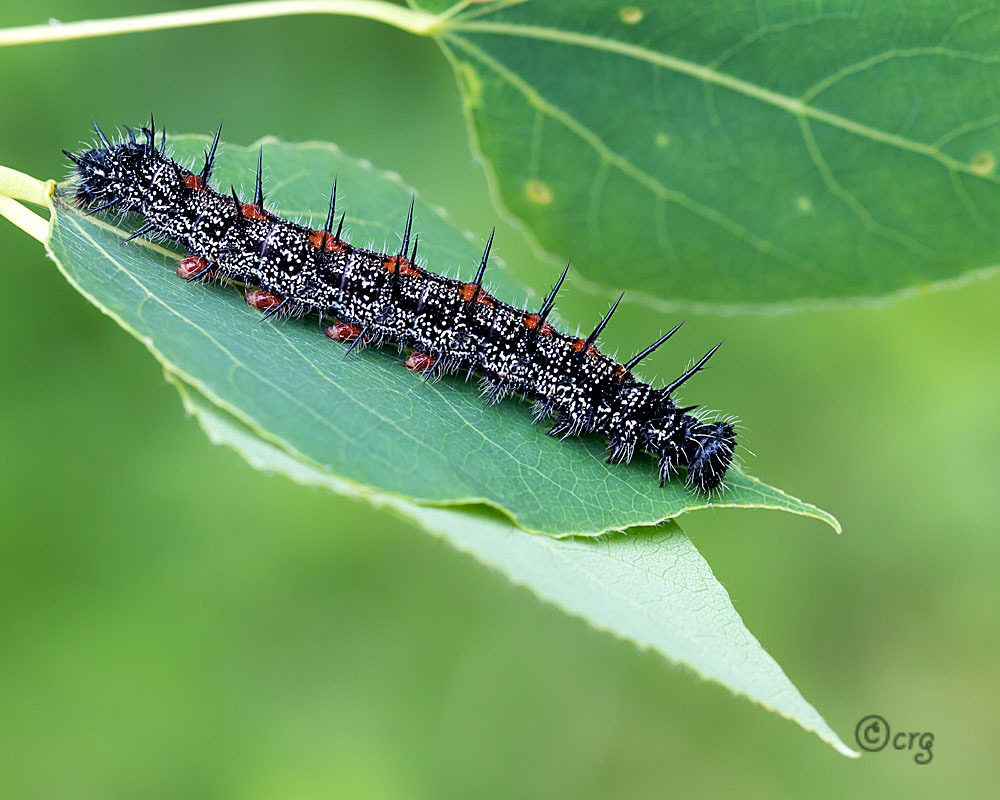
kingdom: Animalia
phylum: Arthropoda
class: Insecta
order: Lepidoptera
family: Nymphalidae
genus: Nymphalis
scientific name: Nymphalis antiopa
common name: Camberwell beauty
